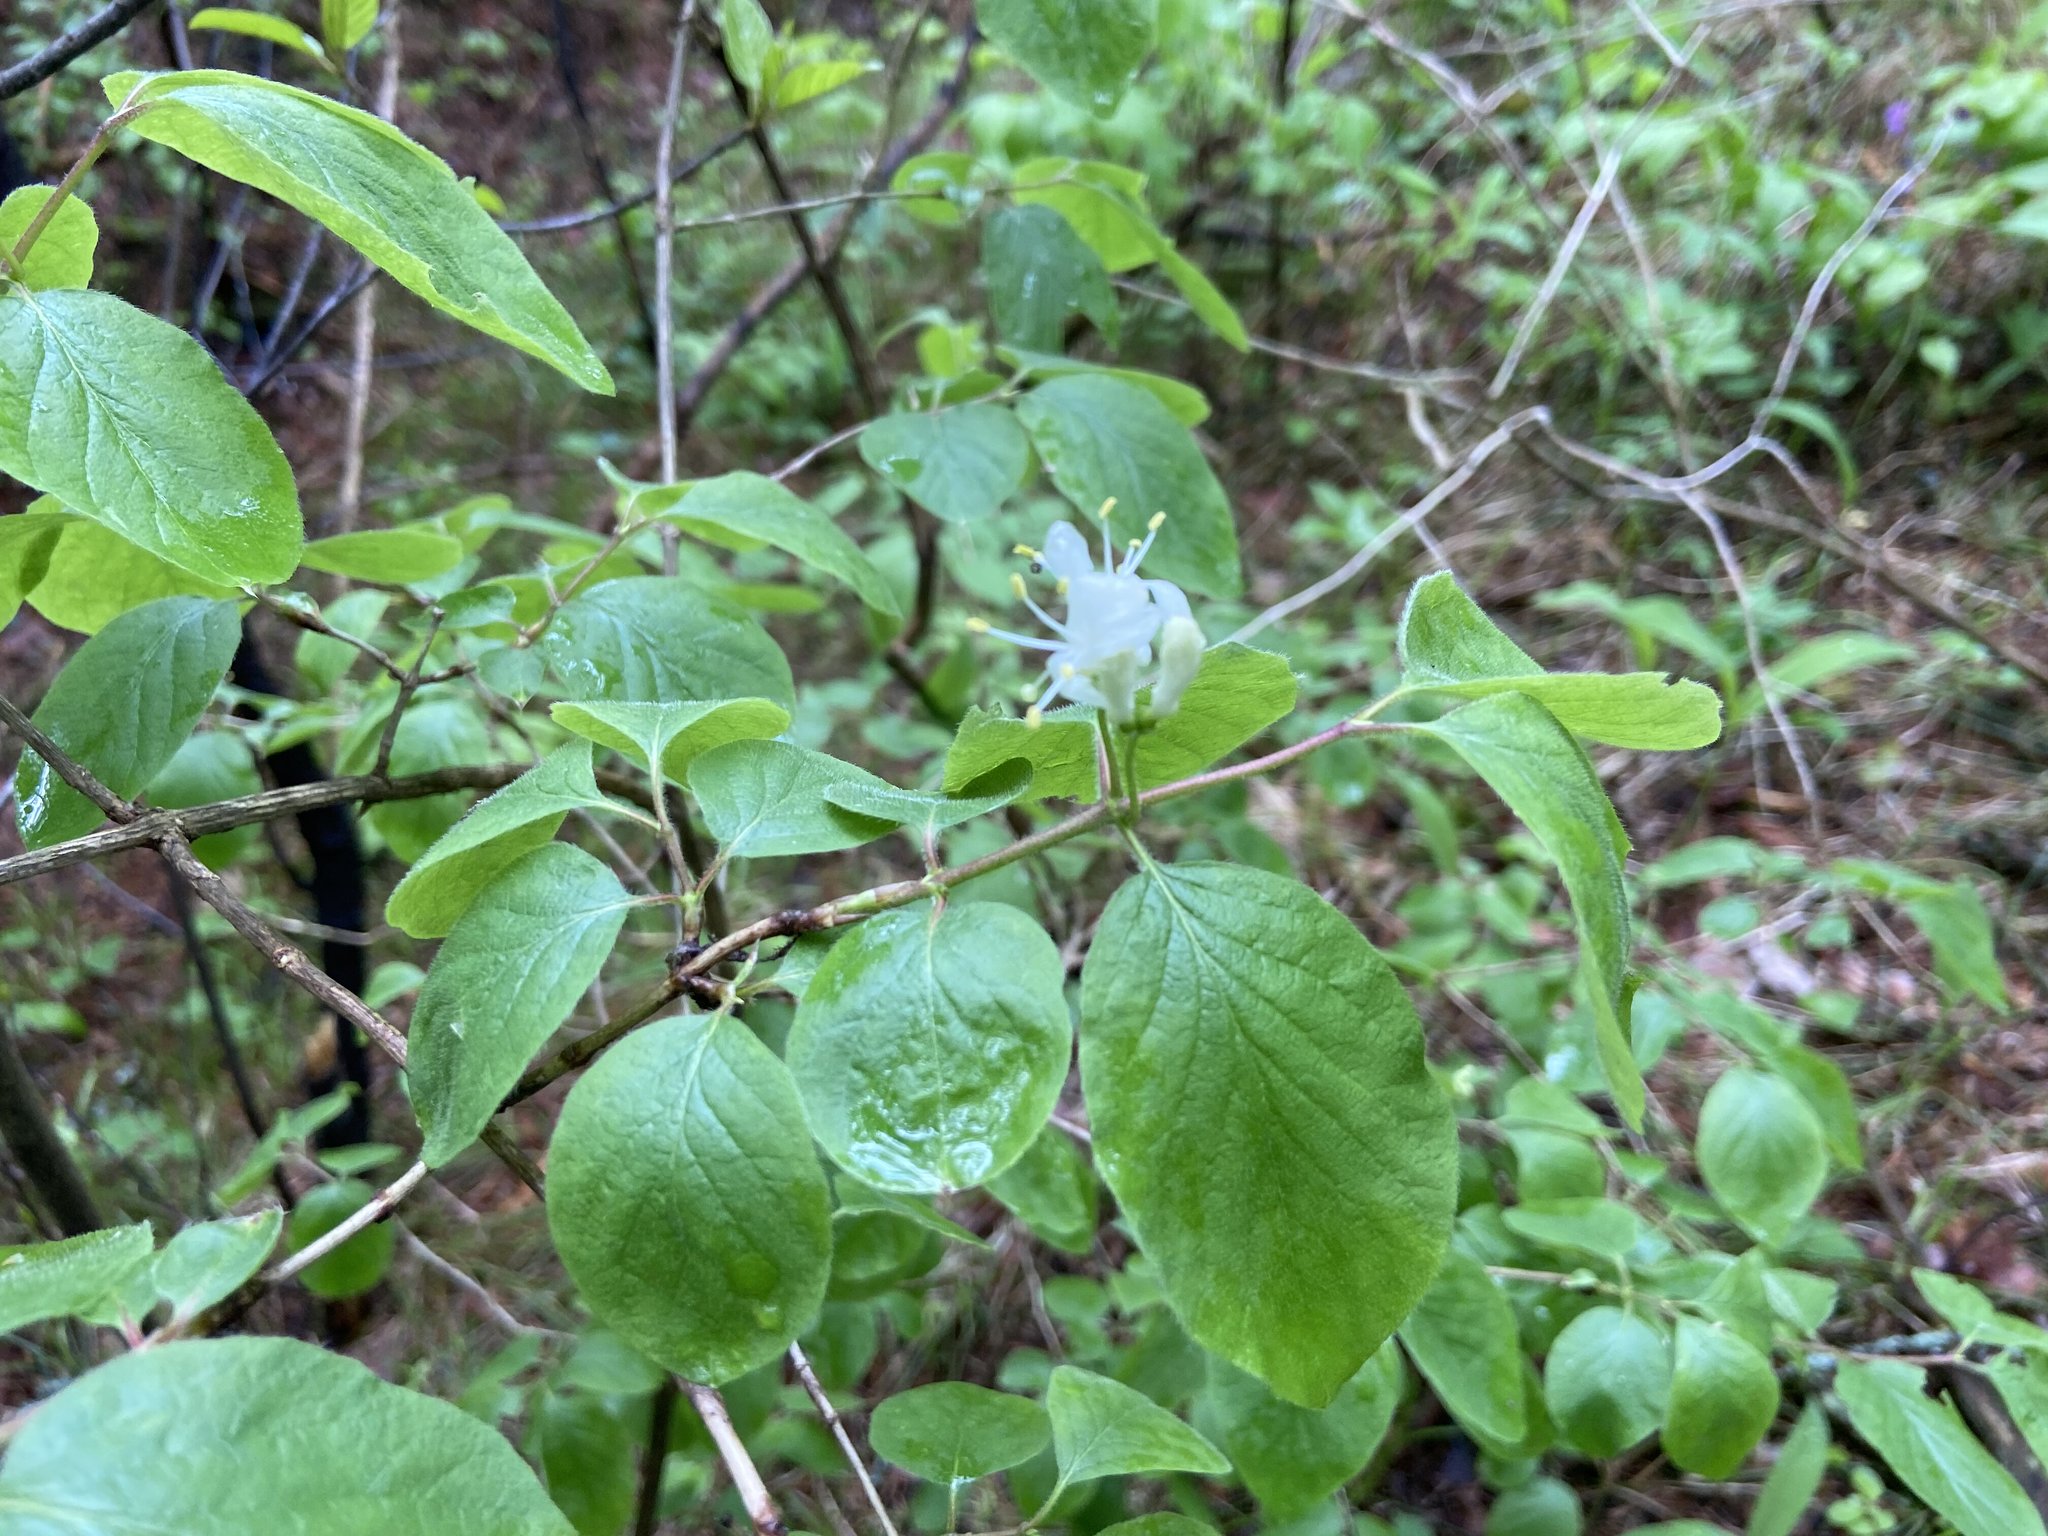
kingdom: Plantae
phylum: Tracheophyta
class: Magnoliopsida
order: Dipsacales
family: Caprifoliaceae
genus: Lonicera
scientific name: Lonicera xylosteum
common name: Fly honeysuckle
